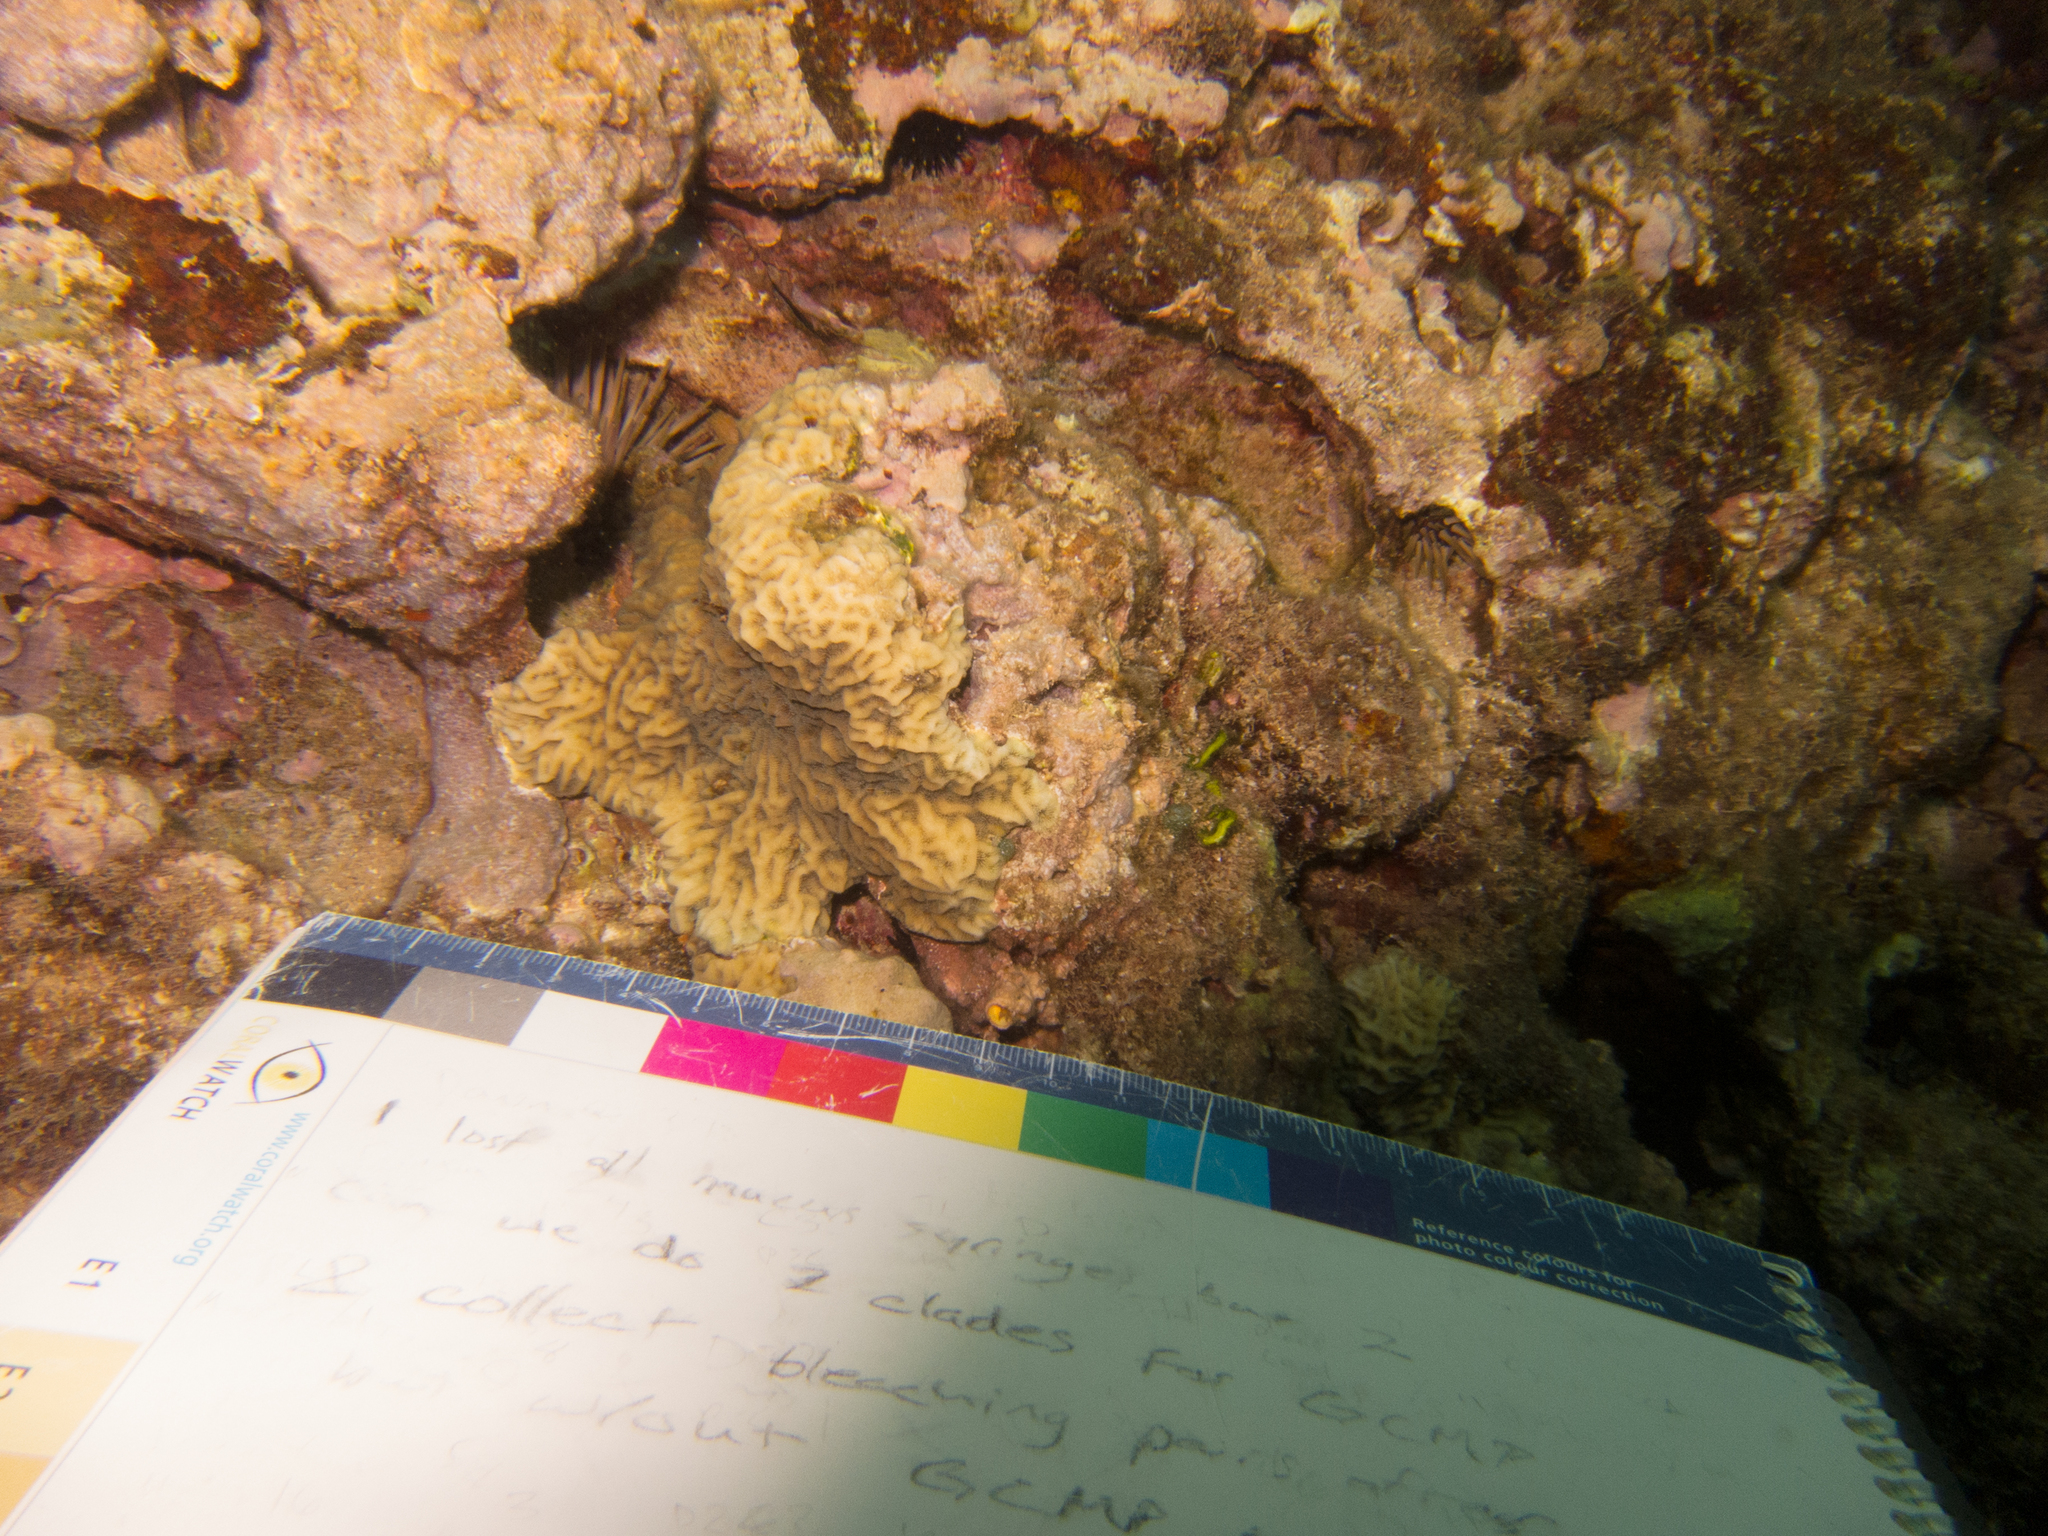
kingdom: Animalia
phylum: Cnidaria
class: Anthozoa
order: Scleractinia
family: Agariciidae
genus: Pavona
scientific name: Pavona varians
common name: Leaf coral
